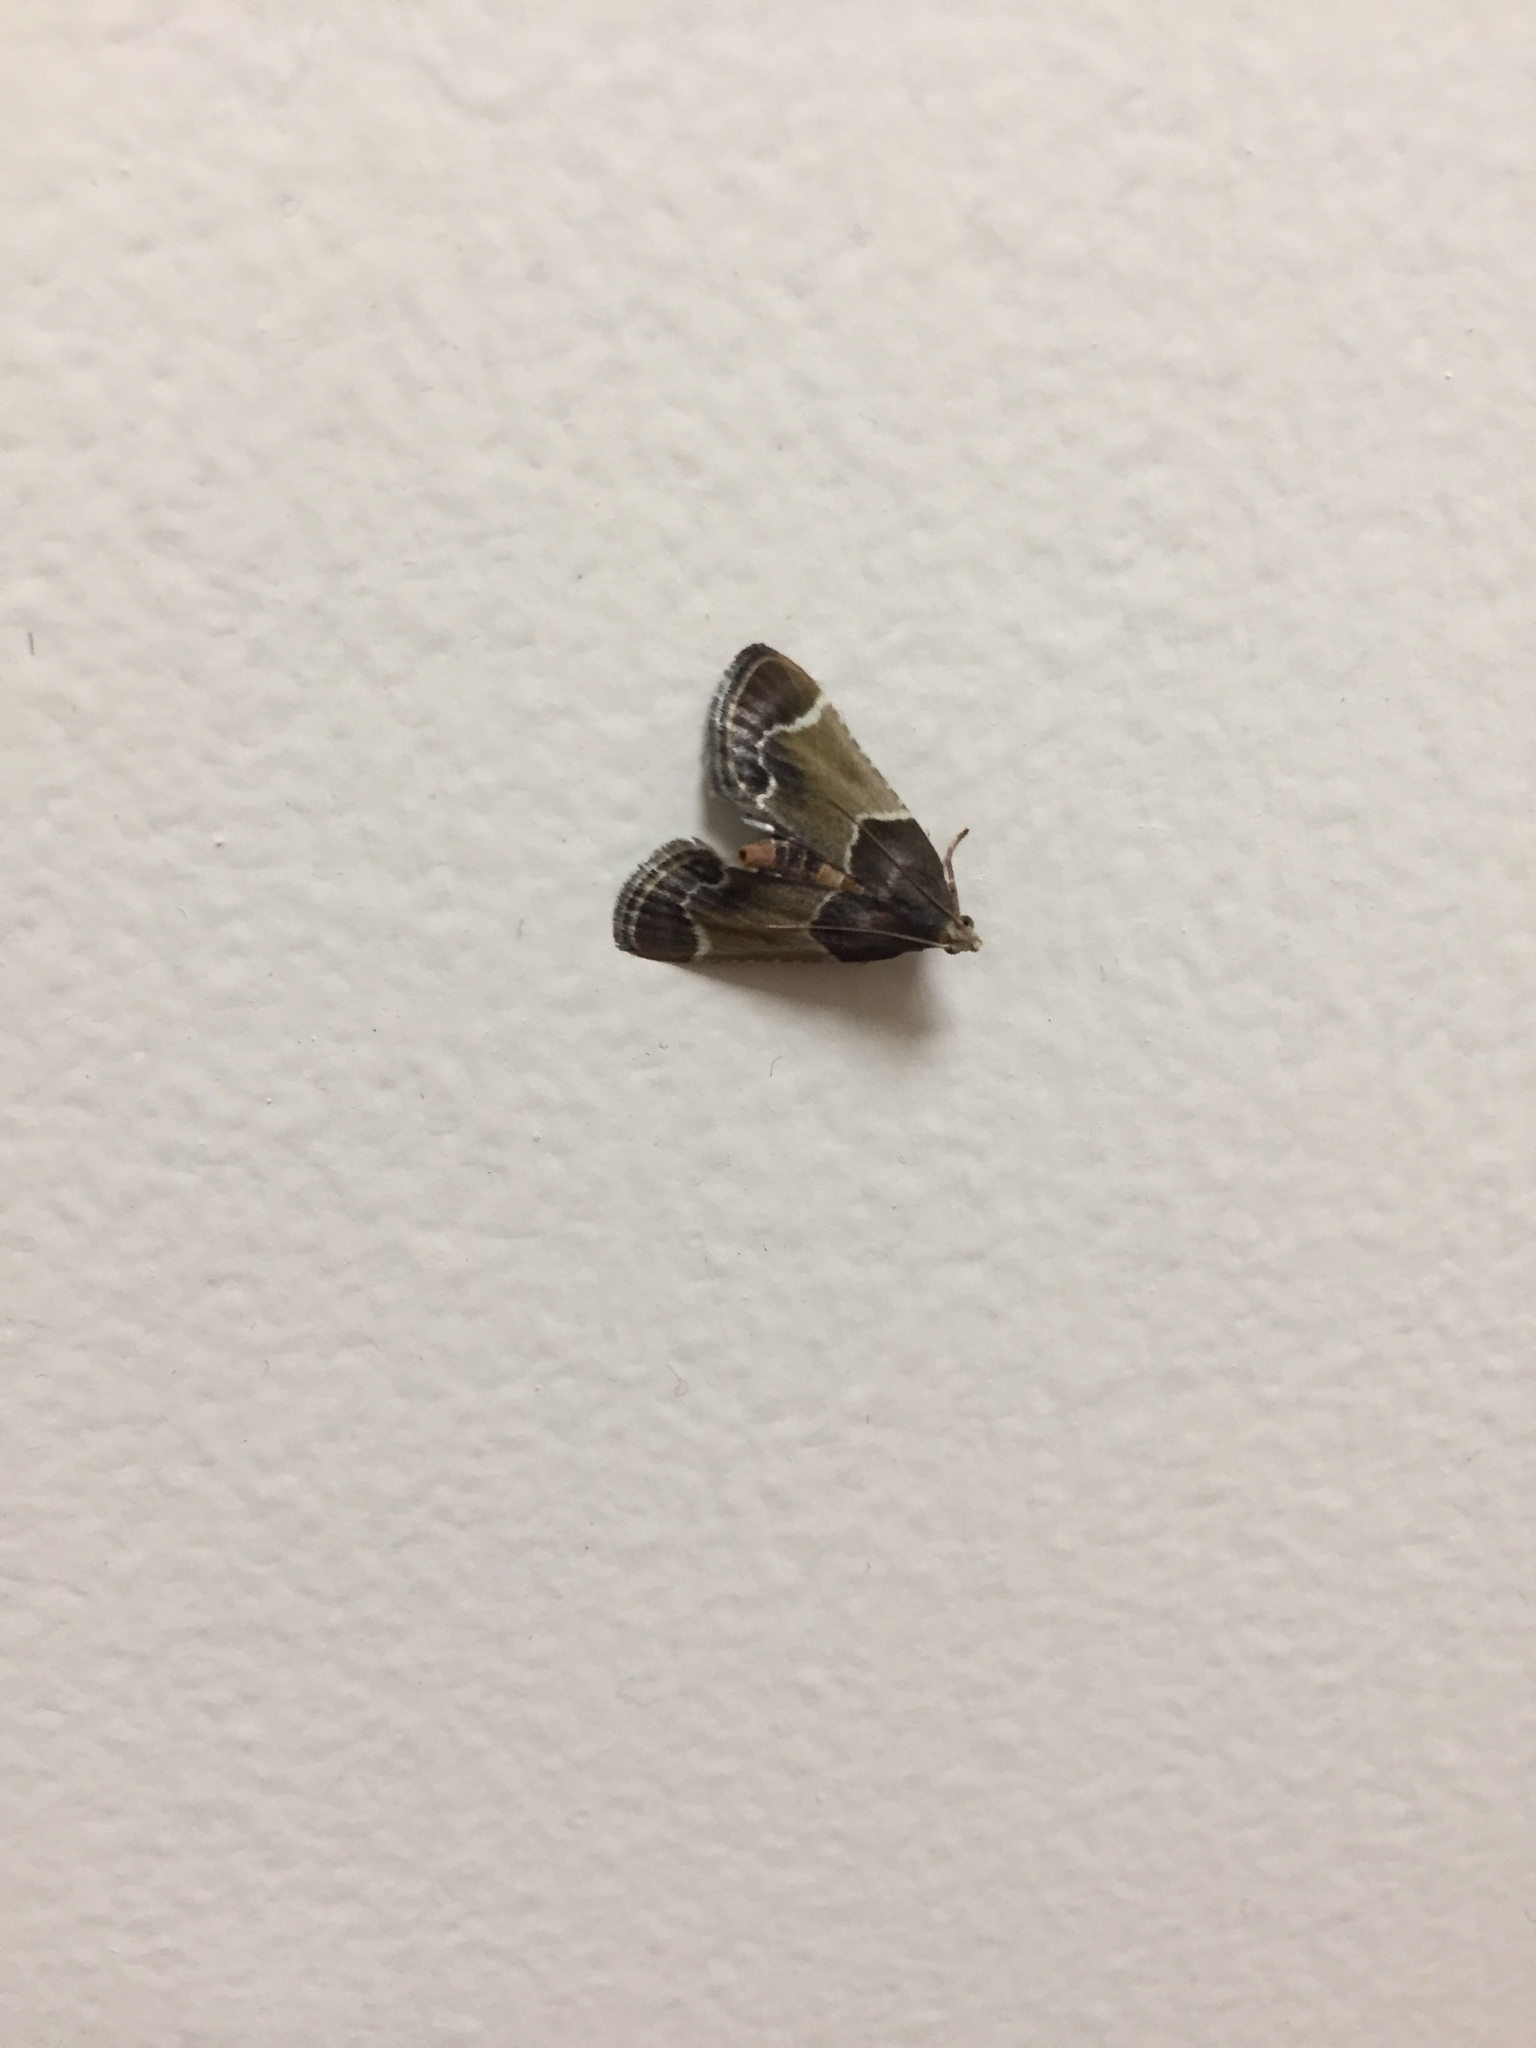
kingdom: Animalia
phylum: Arthropoda
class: Insecta
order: Lepidoptera
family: Pyralidae
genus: Pyralis
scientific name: Pyralis farinalis
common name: Meal moth
